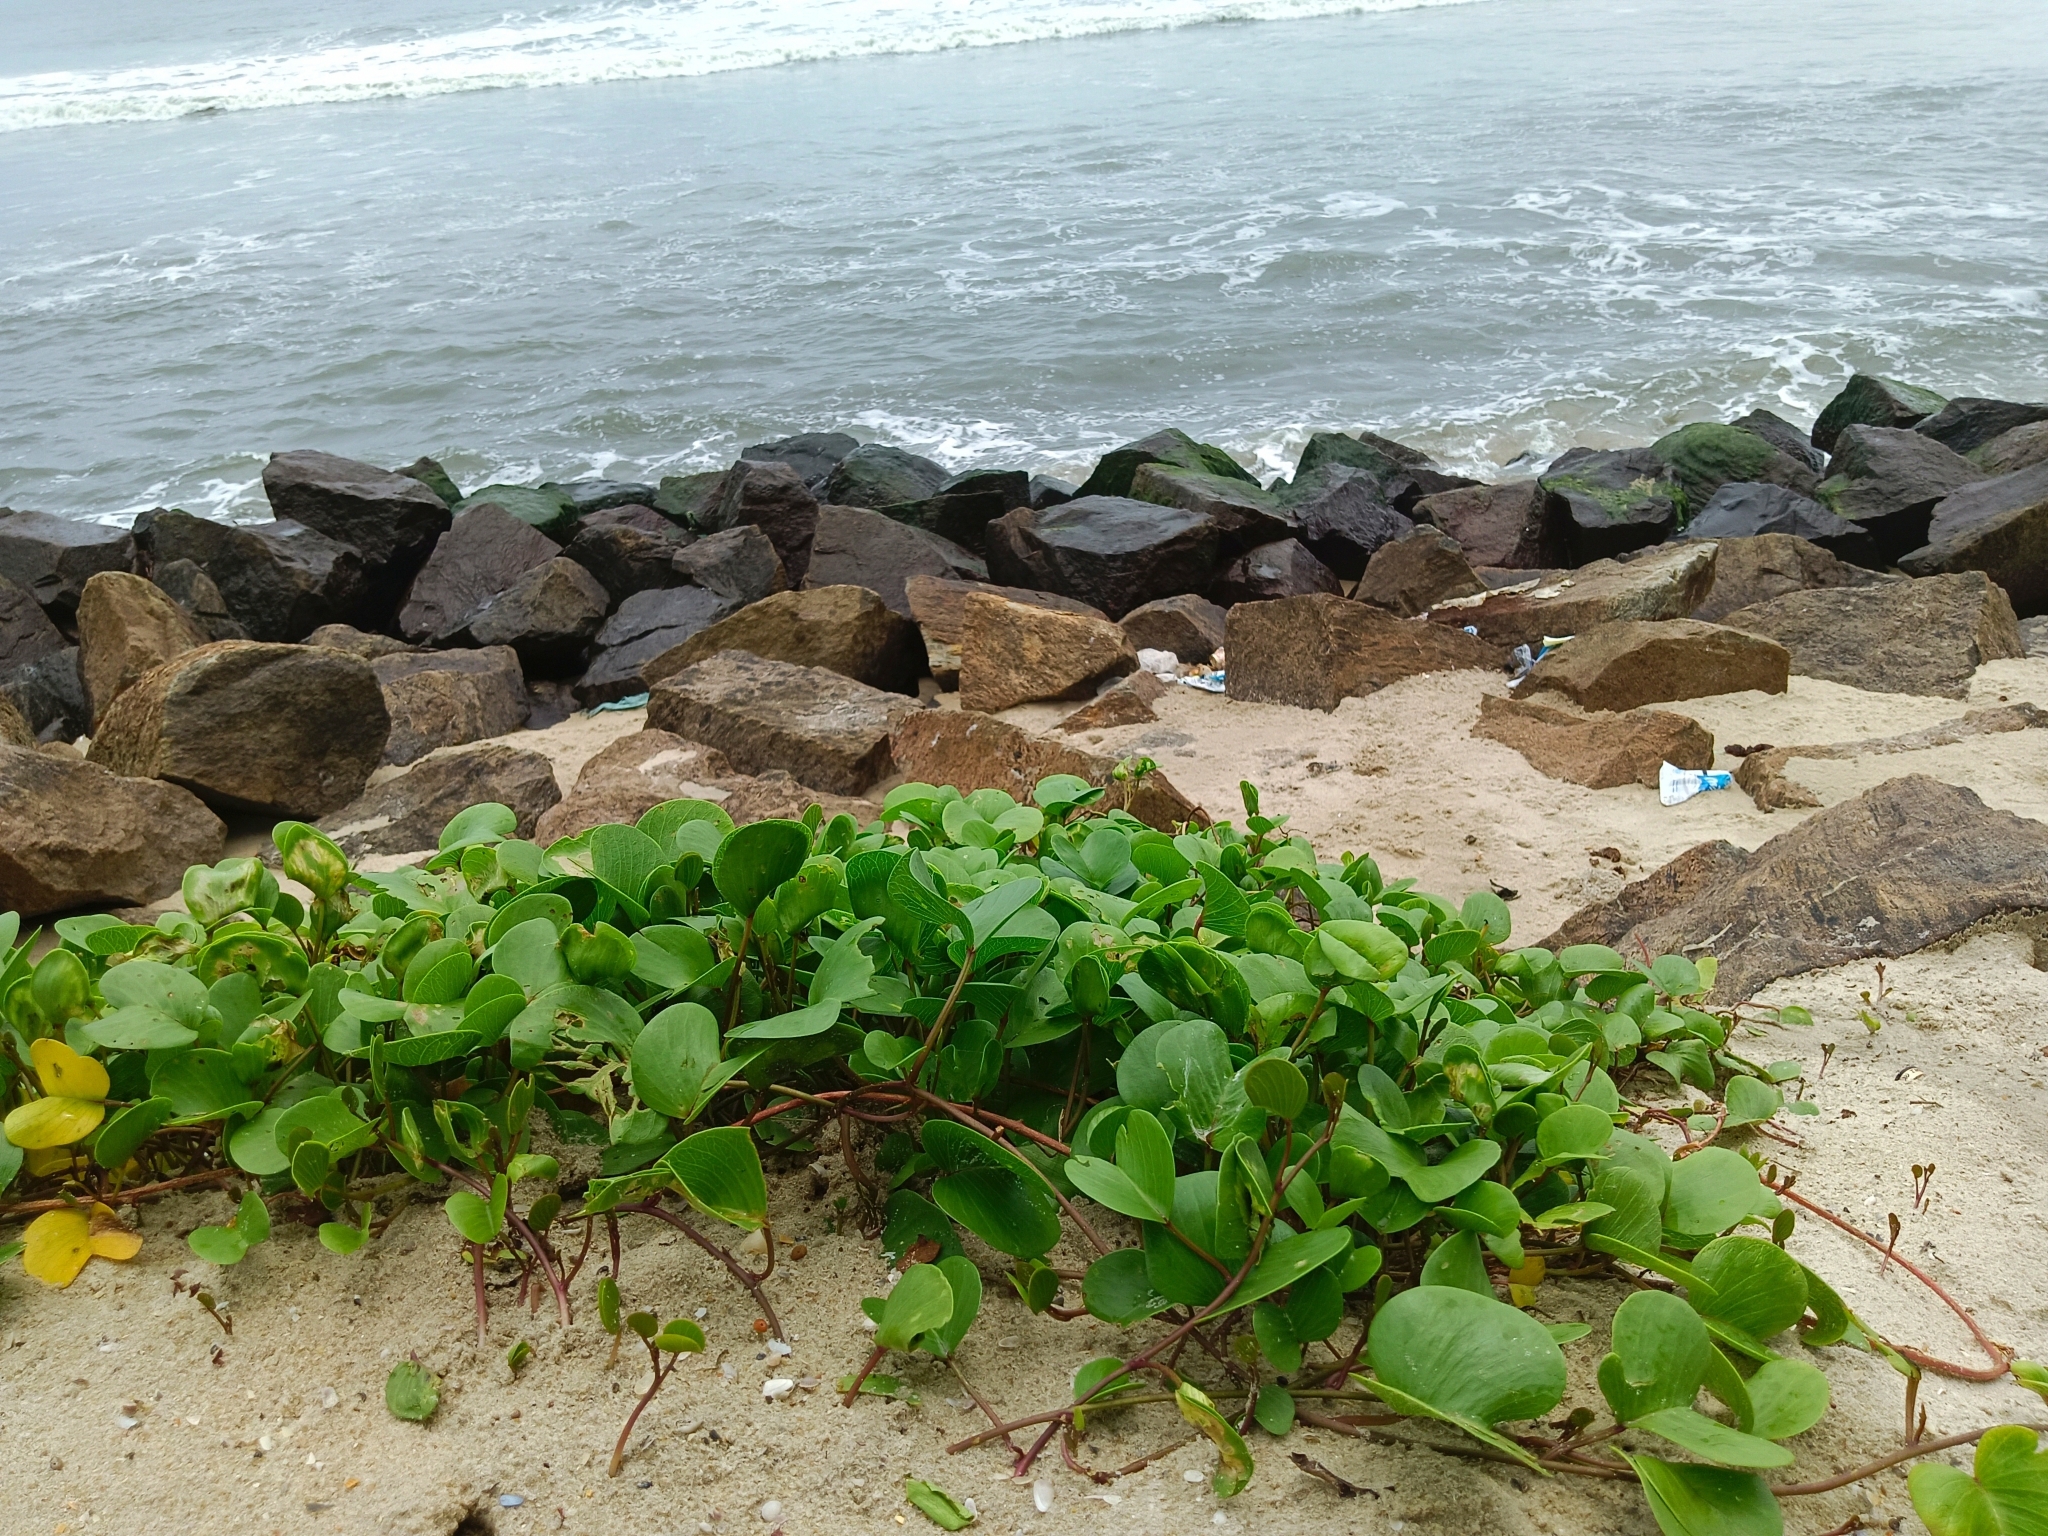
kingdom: Plantae
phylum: Tracheophyta
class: Magnoliopsida
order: Solanales
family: Convolvulaceae
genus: Ipomoea
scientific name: Ipomoea pes-caprae
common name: Beach morning glory
